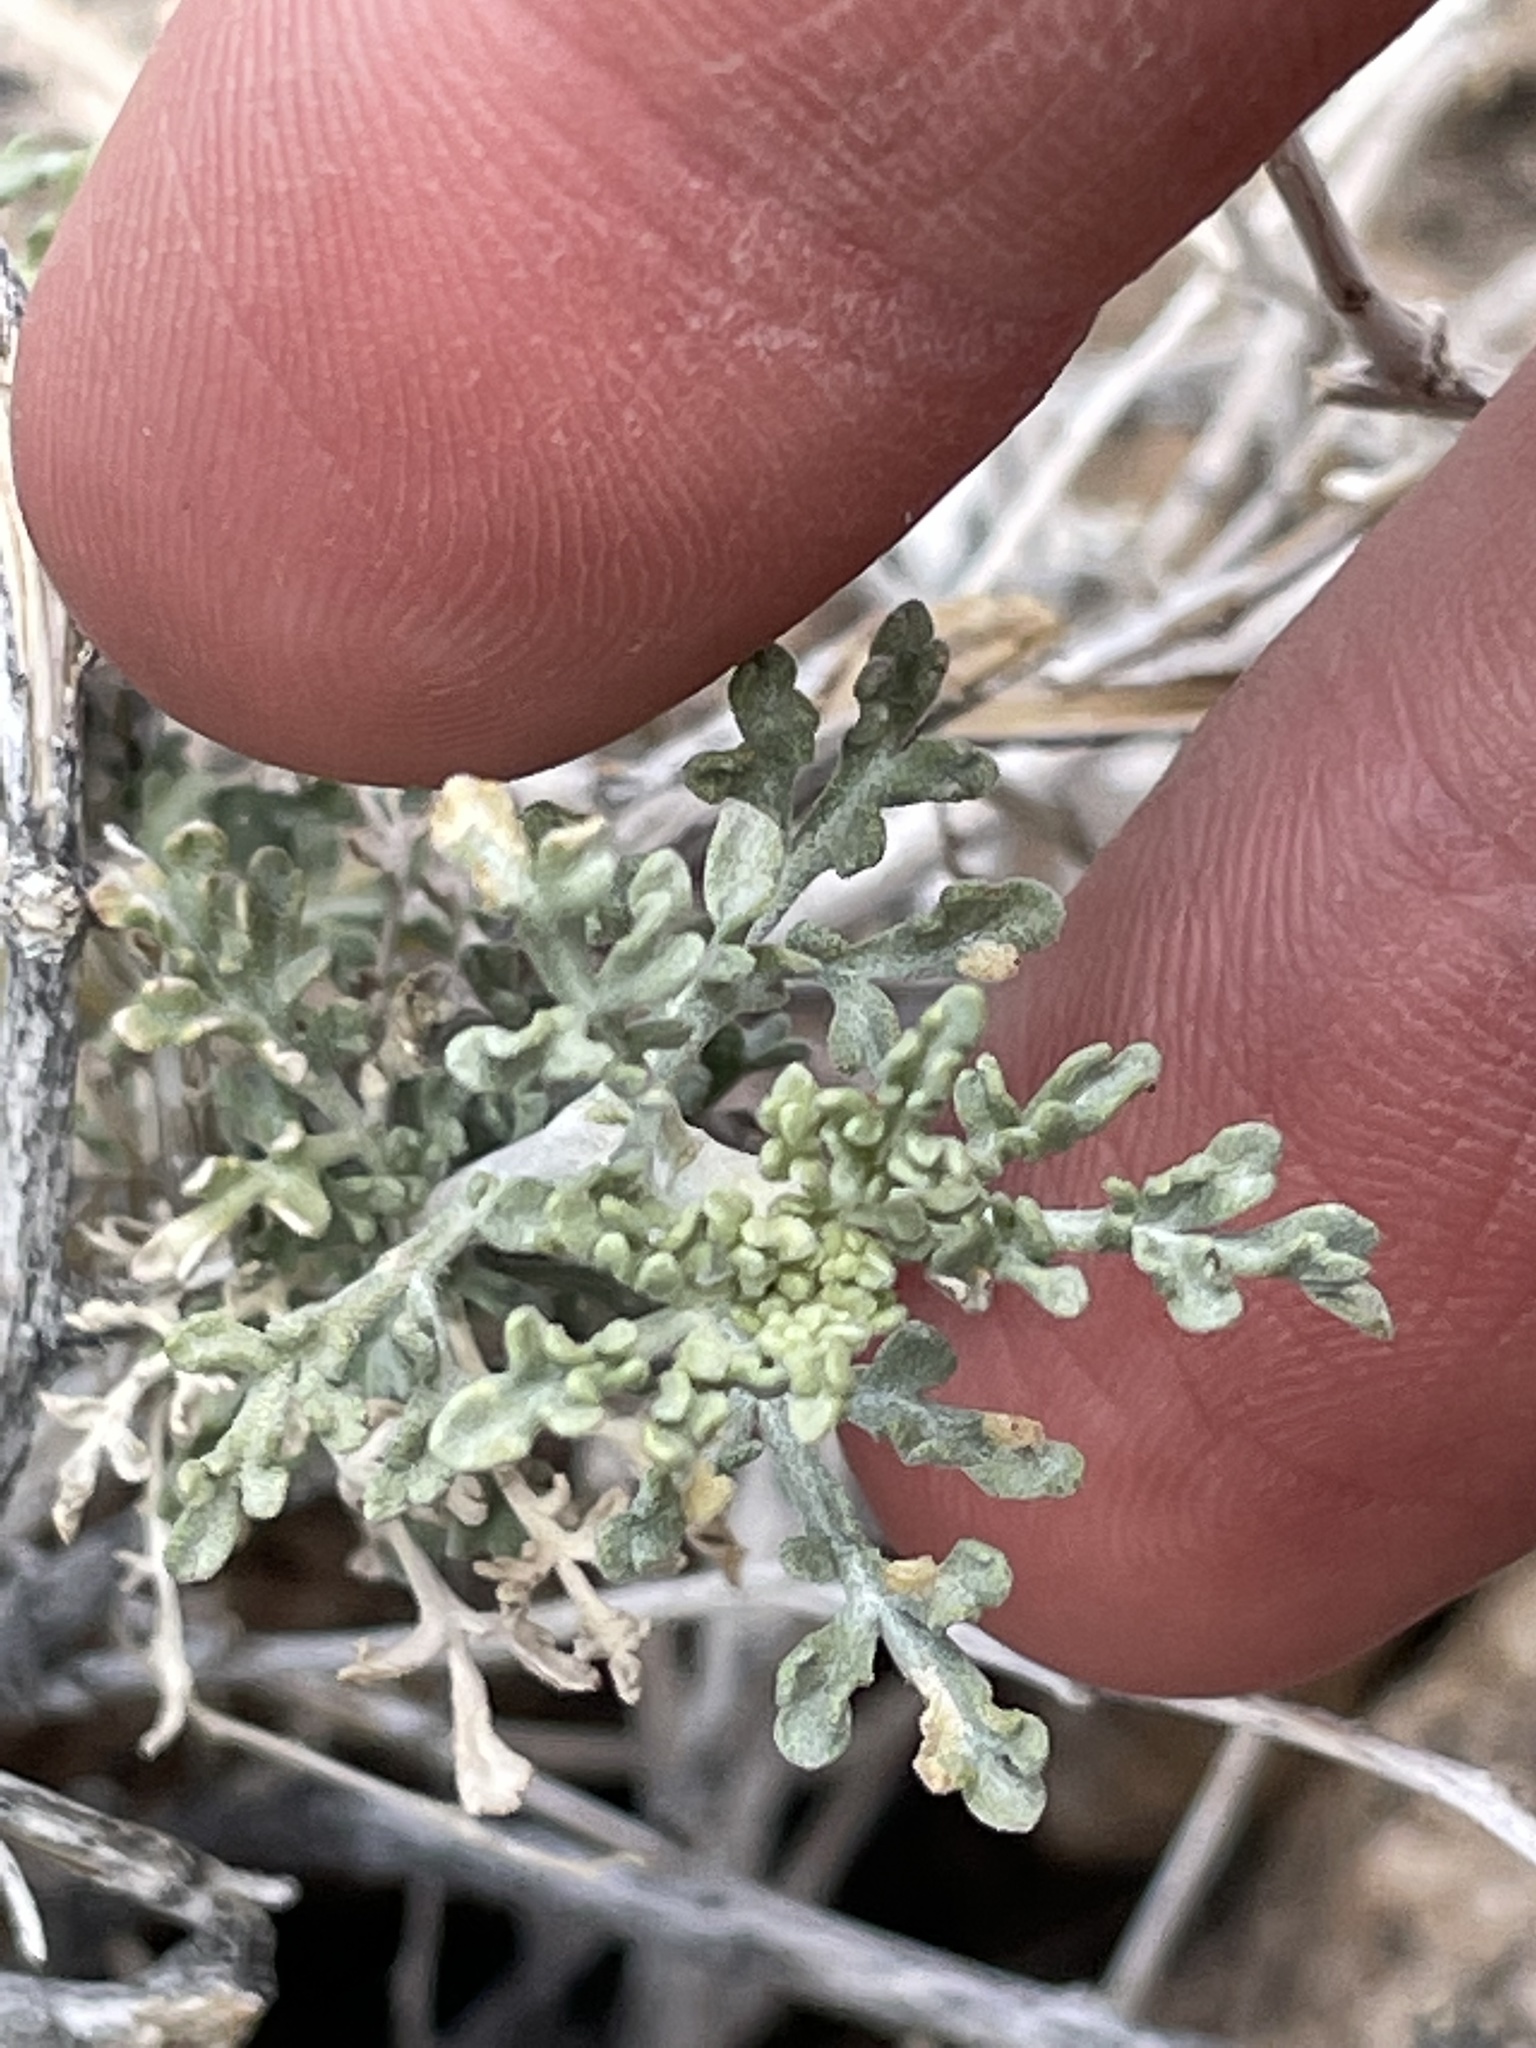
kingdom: Plantae
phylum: Tracheophyta
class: Magnoliopsida
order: Asterales
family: Asteraceae
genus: Ambrosia
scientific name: Ambrosia dumosa
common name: Bur-sage
